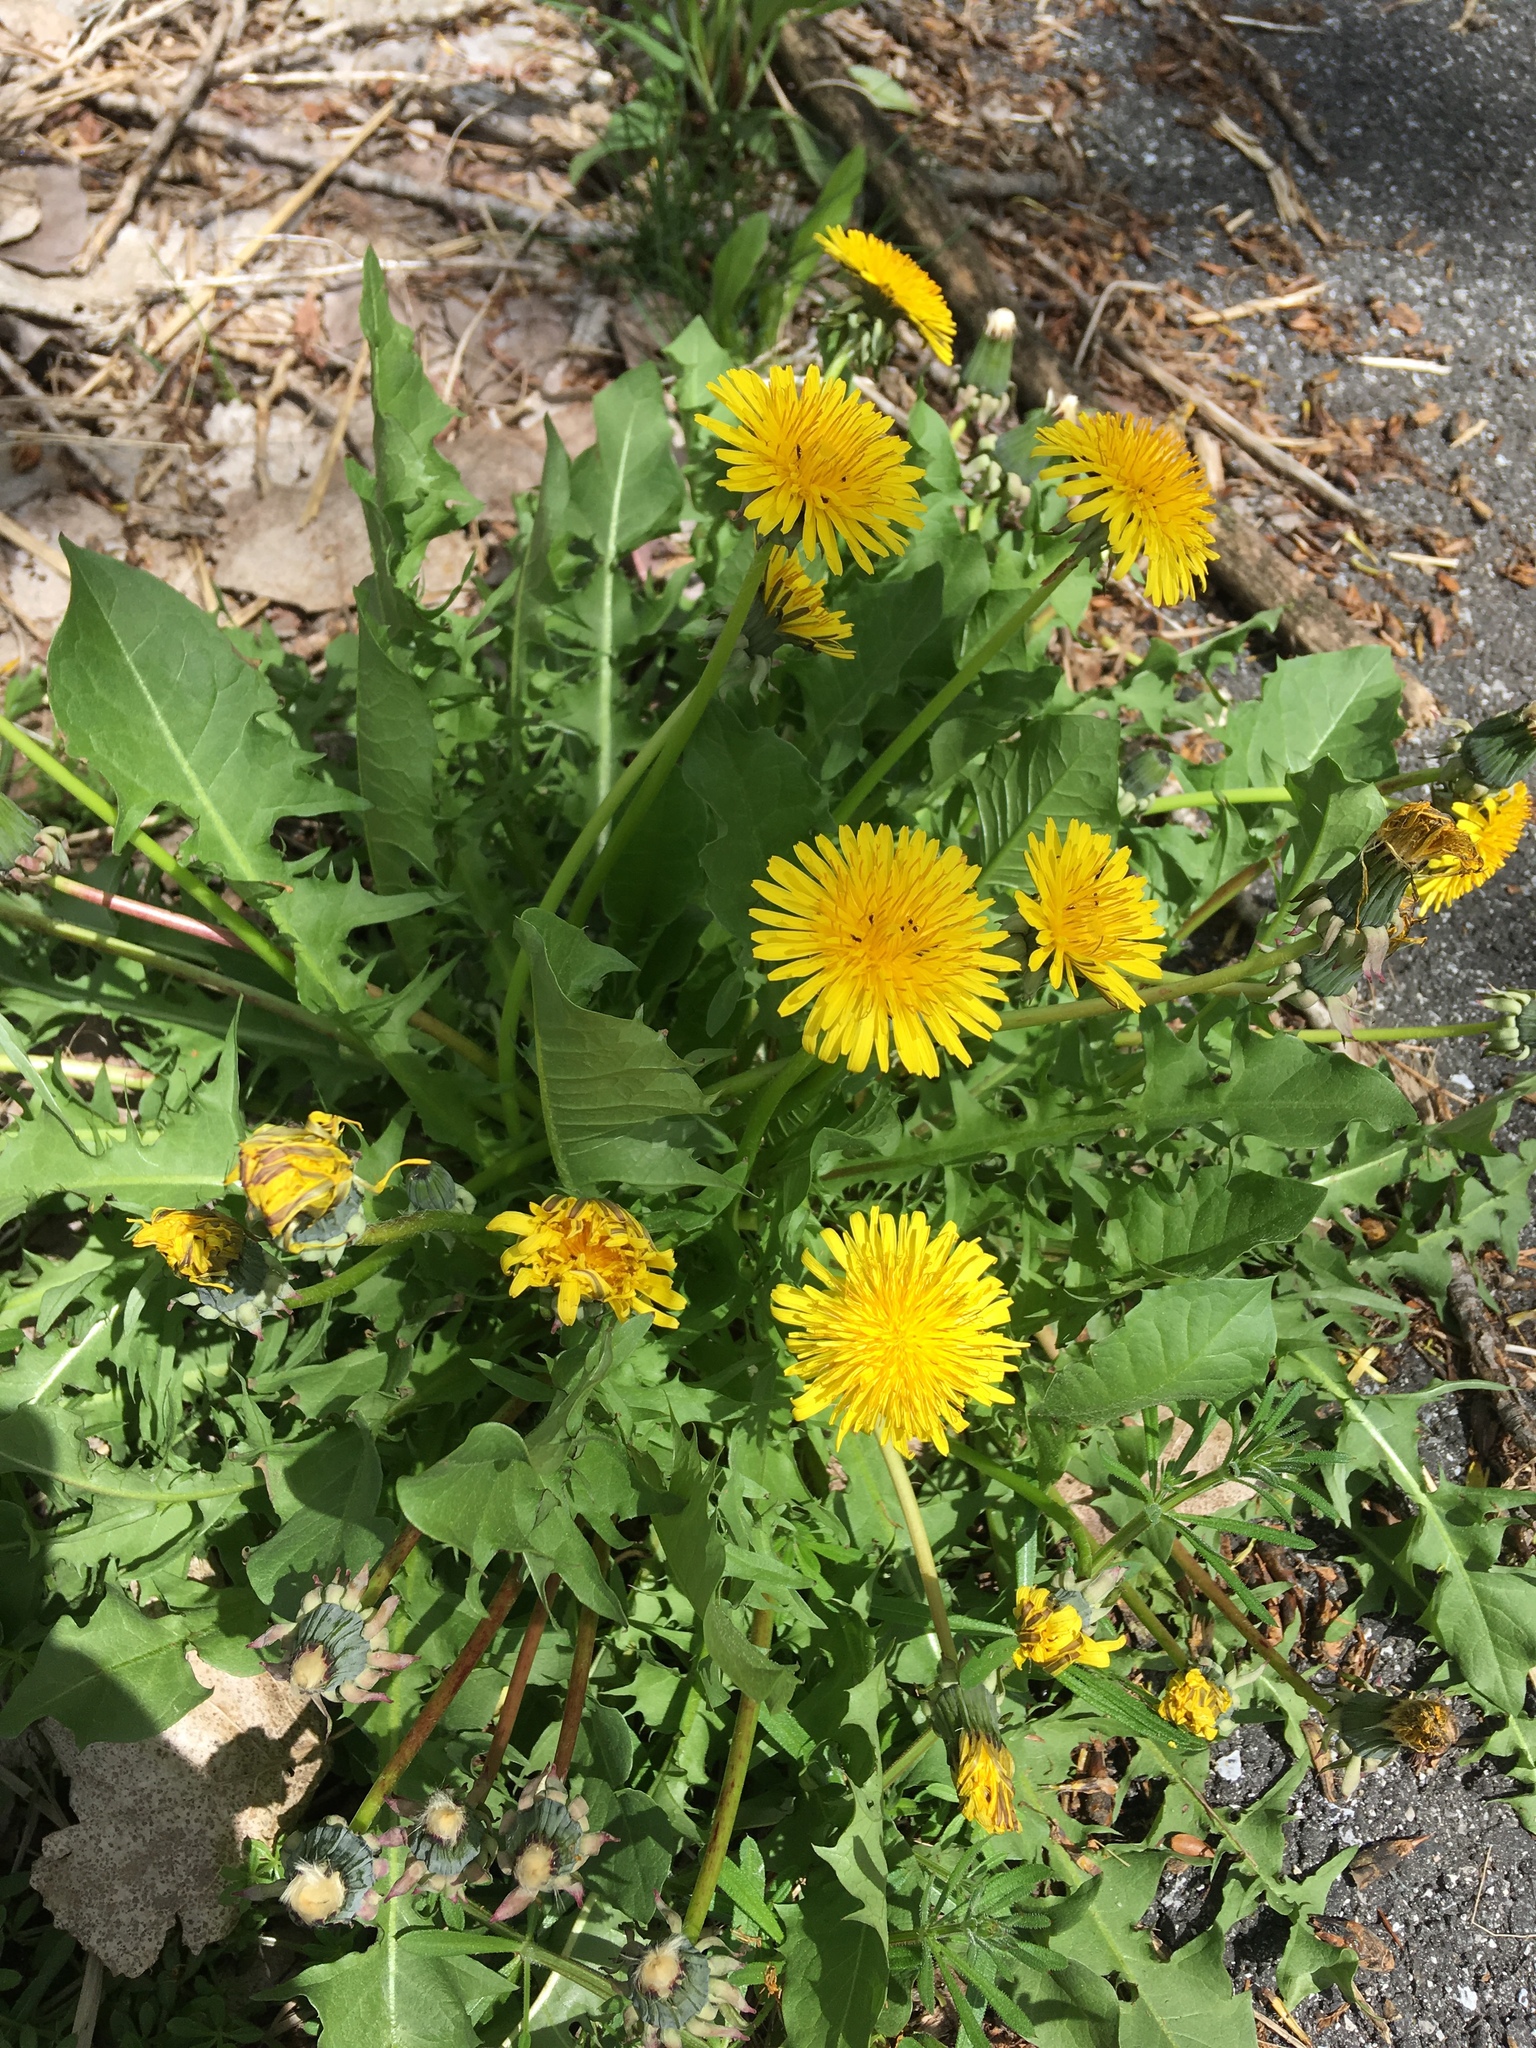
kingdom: Plantae
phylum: Tracheophyta
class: Magnoliopsida
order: Asterales
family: Asteraceae
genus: Taraxacum
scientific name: Taraxacum officinale
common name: Common dandelion
